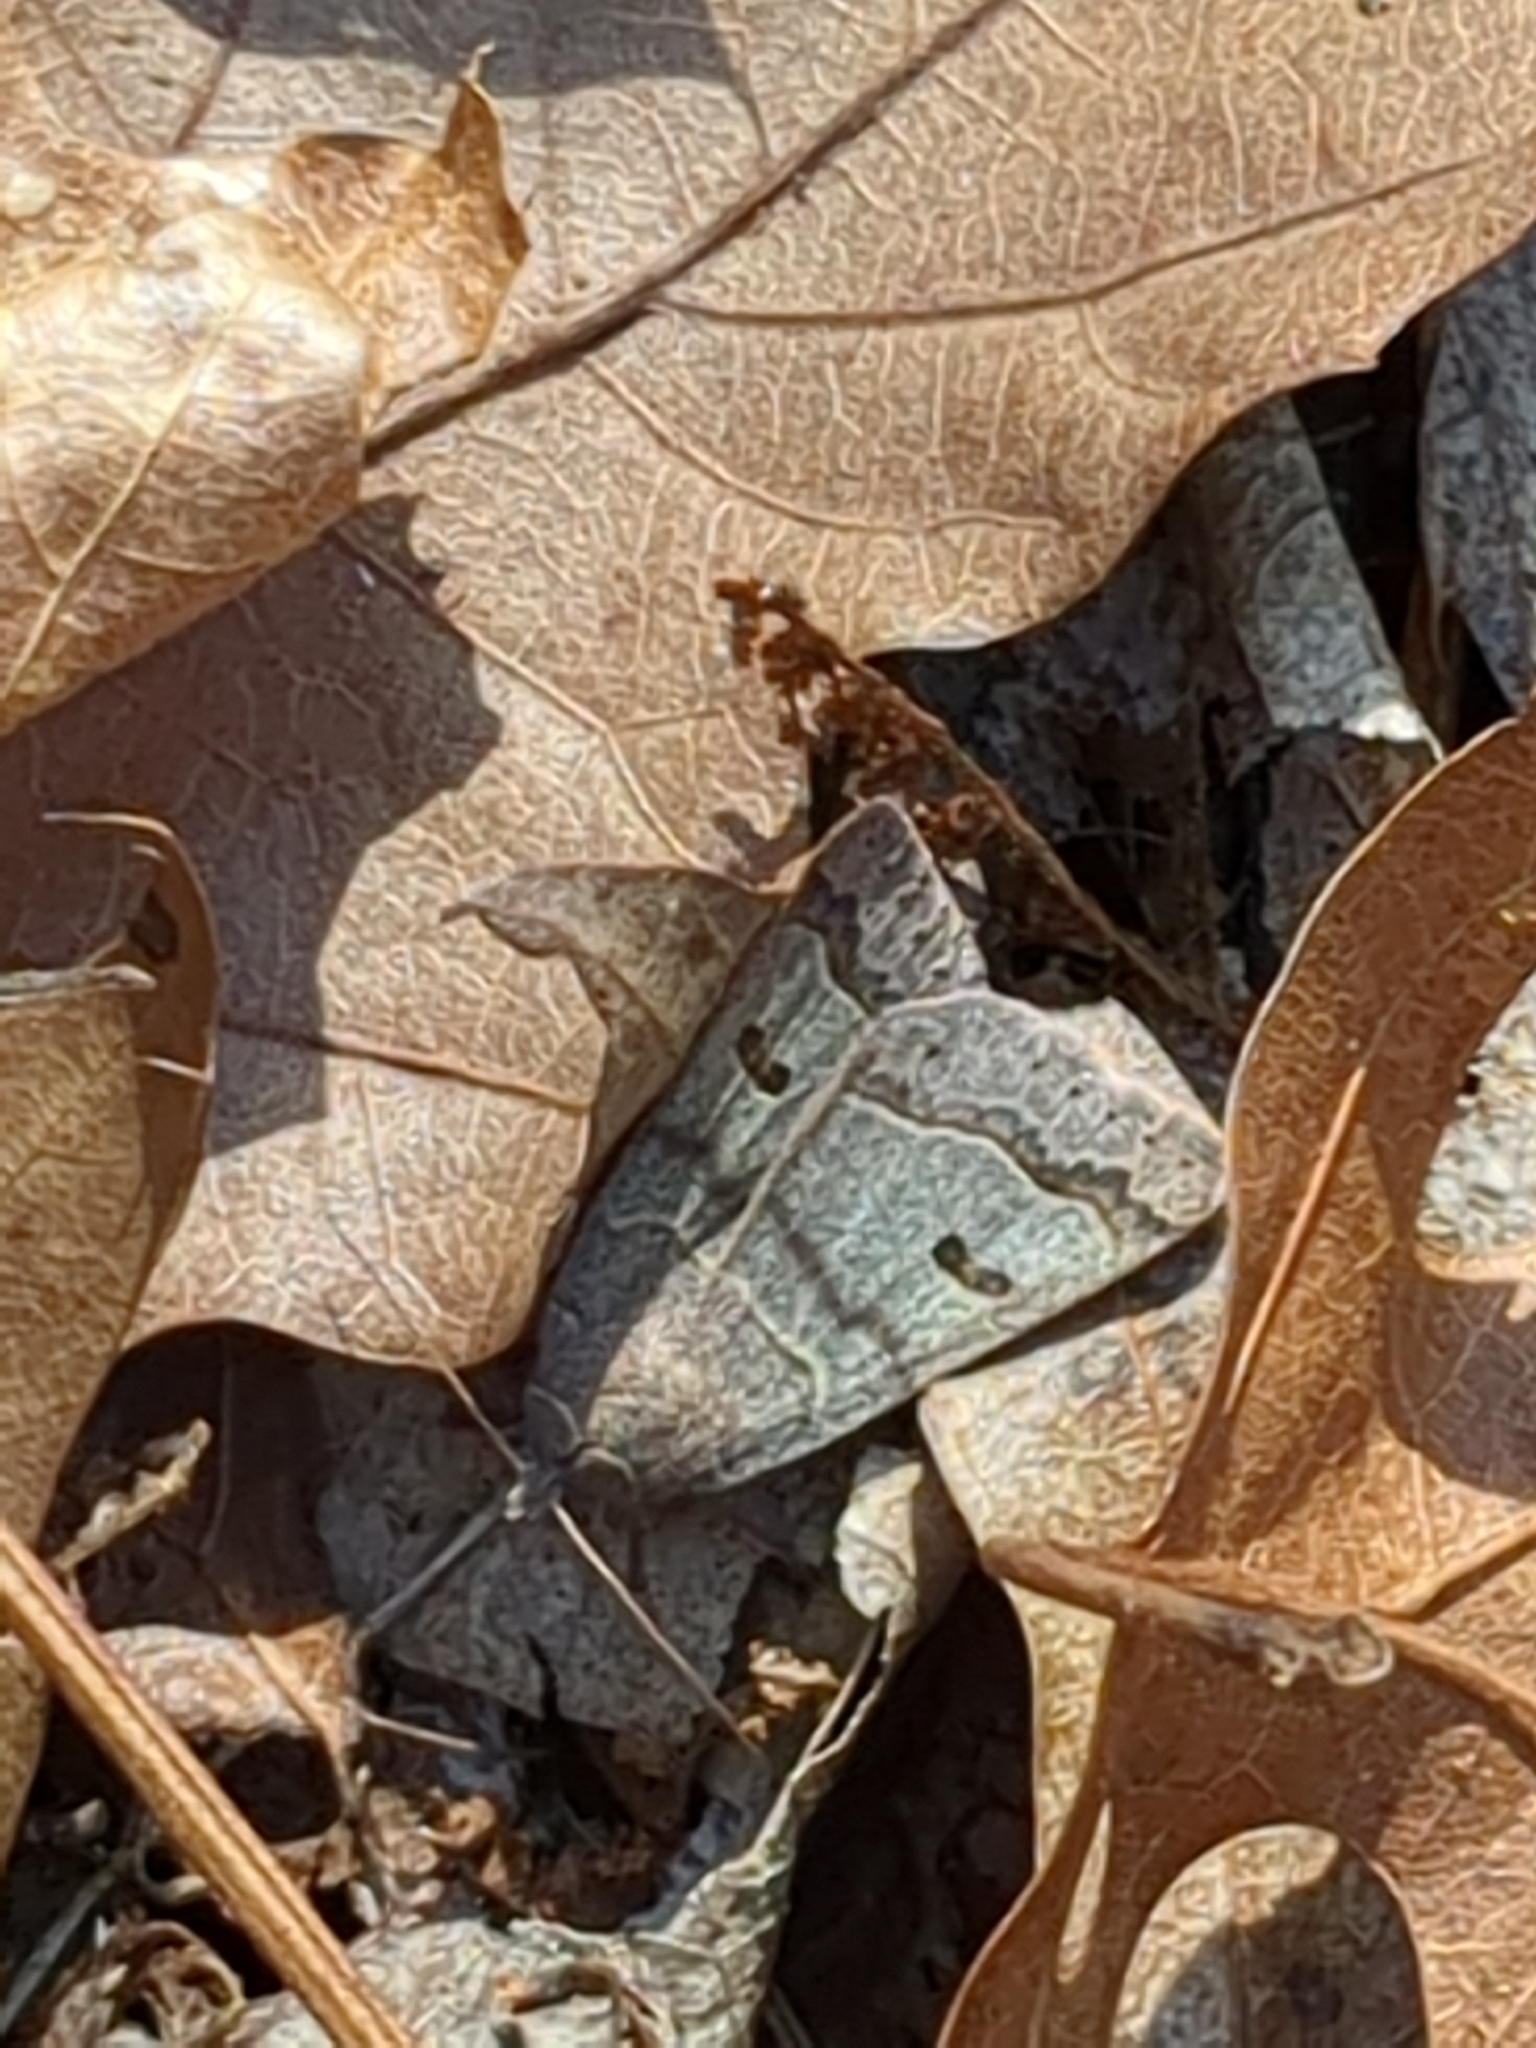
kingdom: Animalia
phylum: Arthropoda
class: Insecta
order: Lepidoptera
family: Erebidae
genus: Phoberia
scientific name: Phoberia atomaris
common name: Common oak moth
